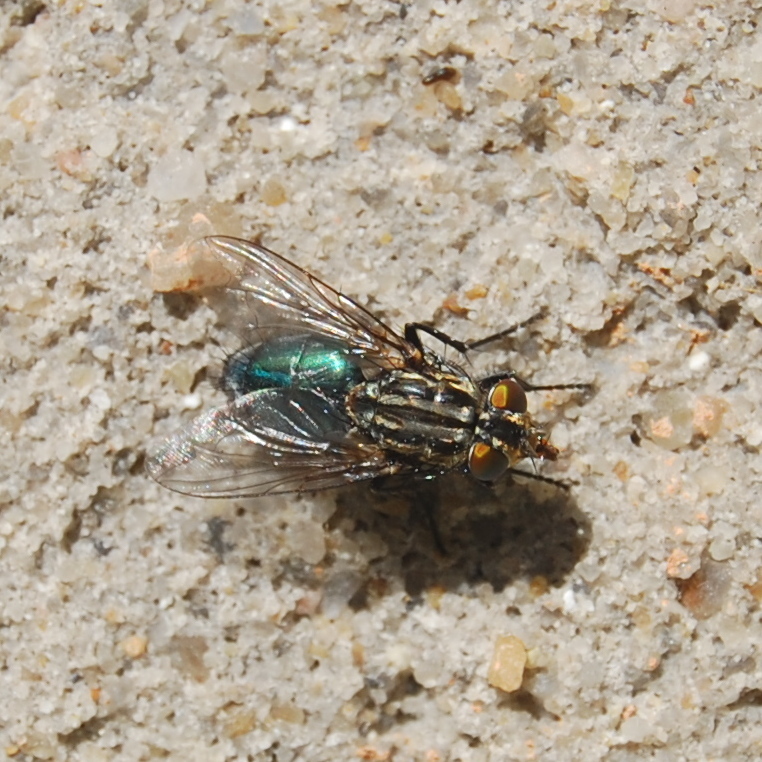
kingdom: Animalia
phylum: Arthropoda
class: Insecta
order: Diptera
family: Calliphoridae
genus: Sarconesia
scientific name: Sarconesia chlorogaster
